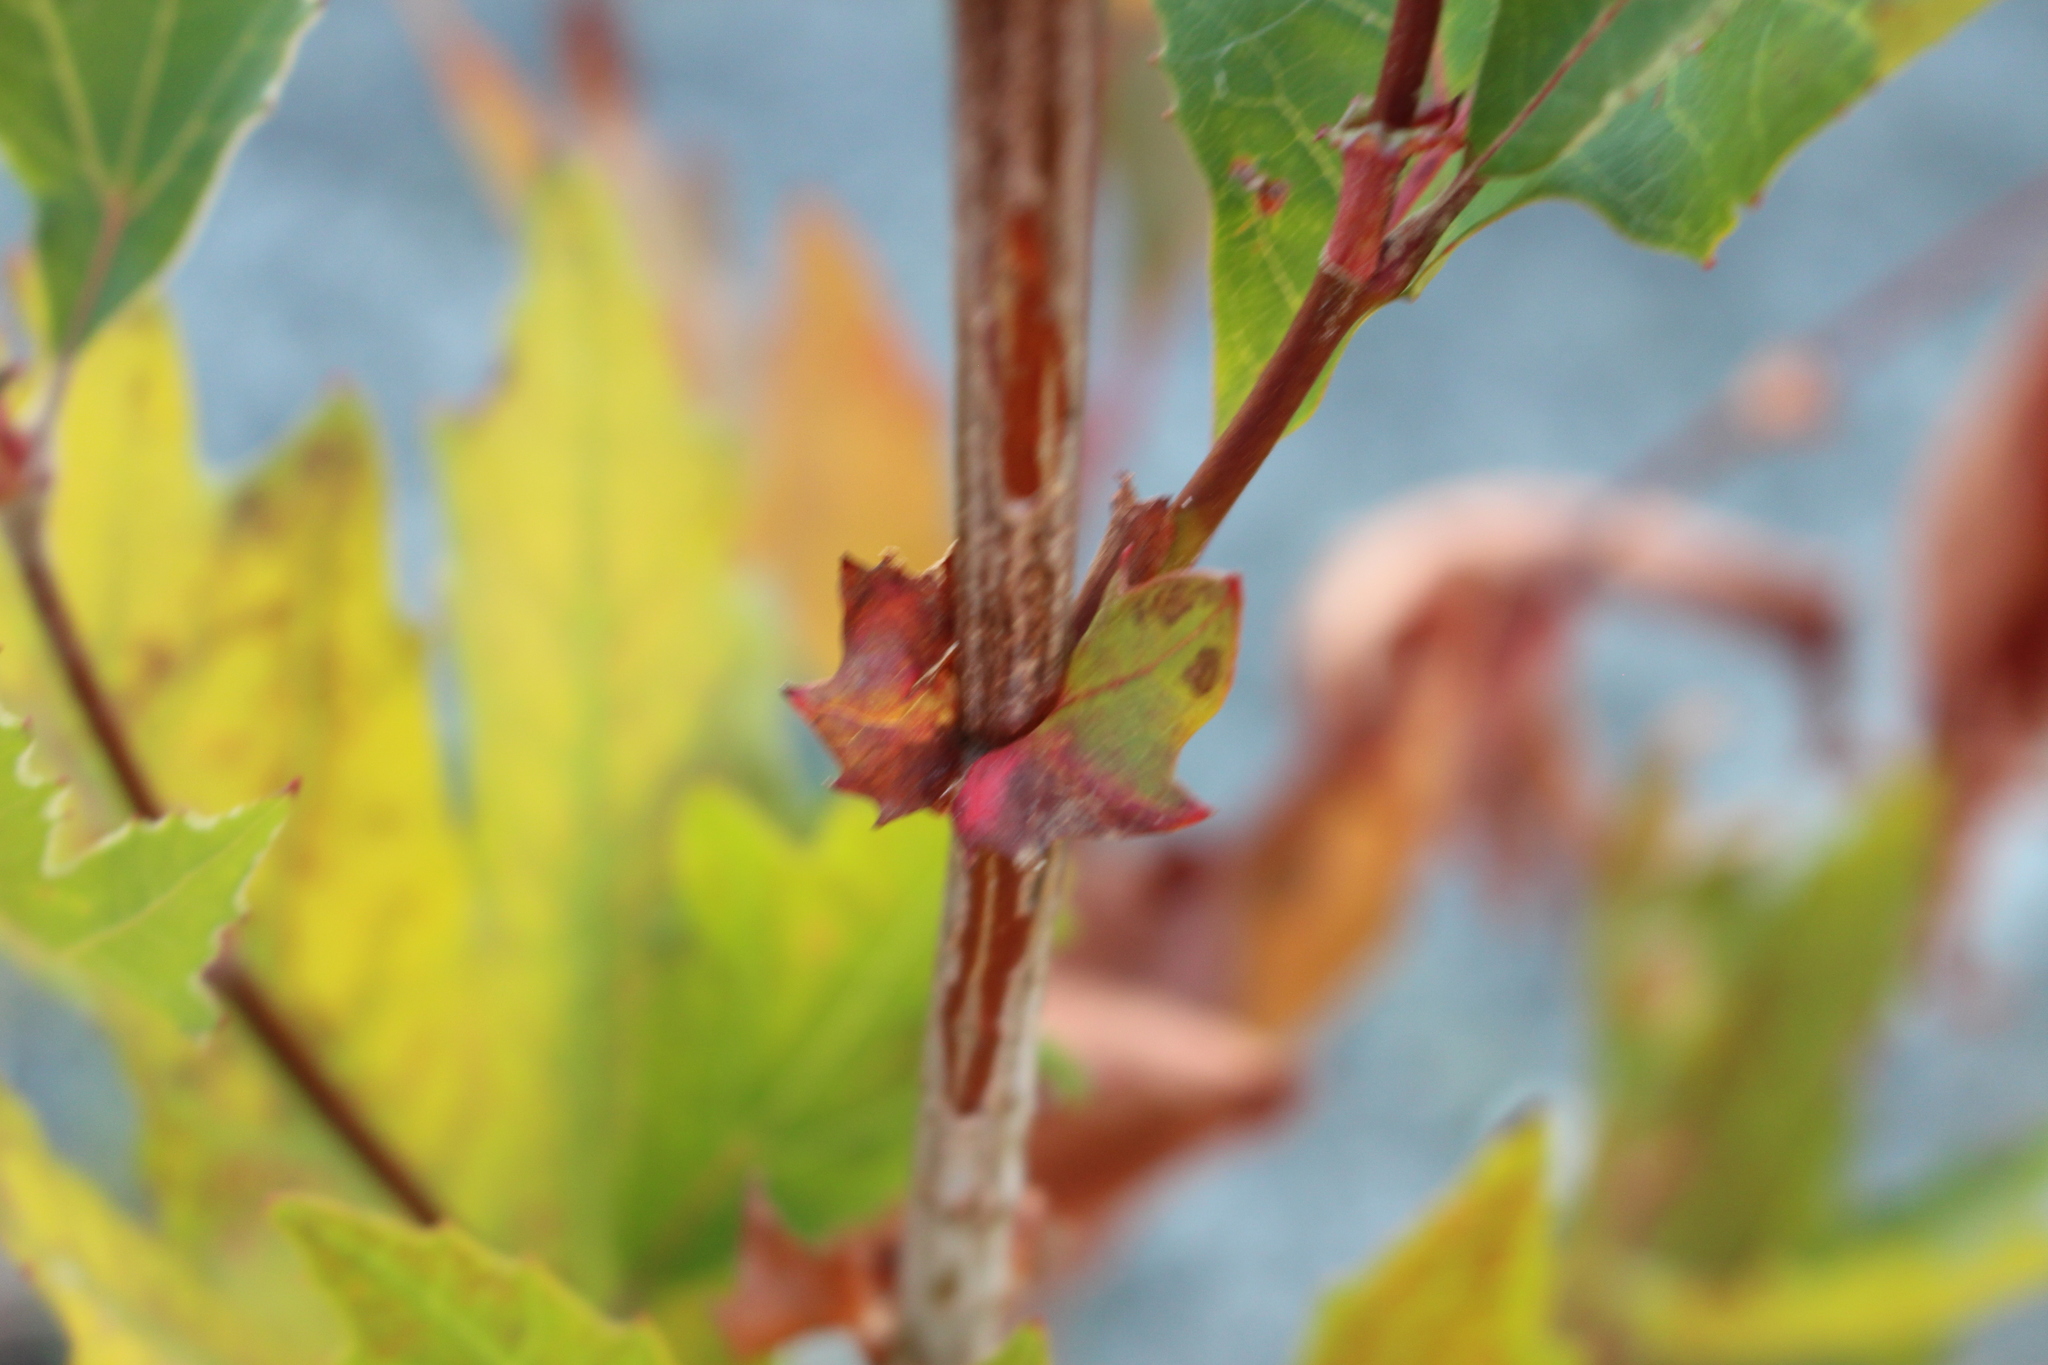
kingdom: Plantae
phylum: Tracheophyta
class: Magnoliopsida
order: Proteales
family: Platanaceae
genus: Platanus
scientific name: Platanus hispanica
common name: London plane
